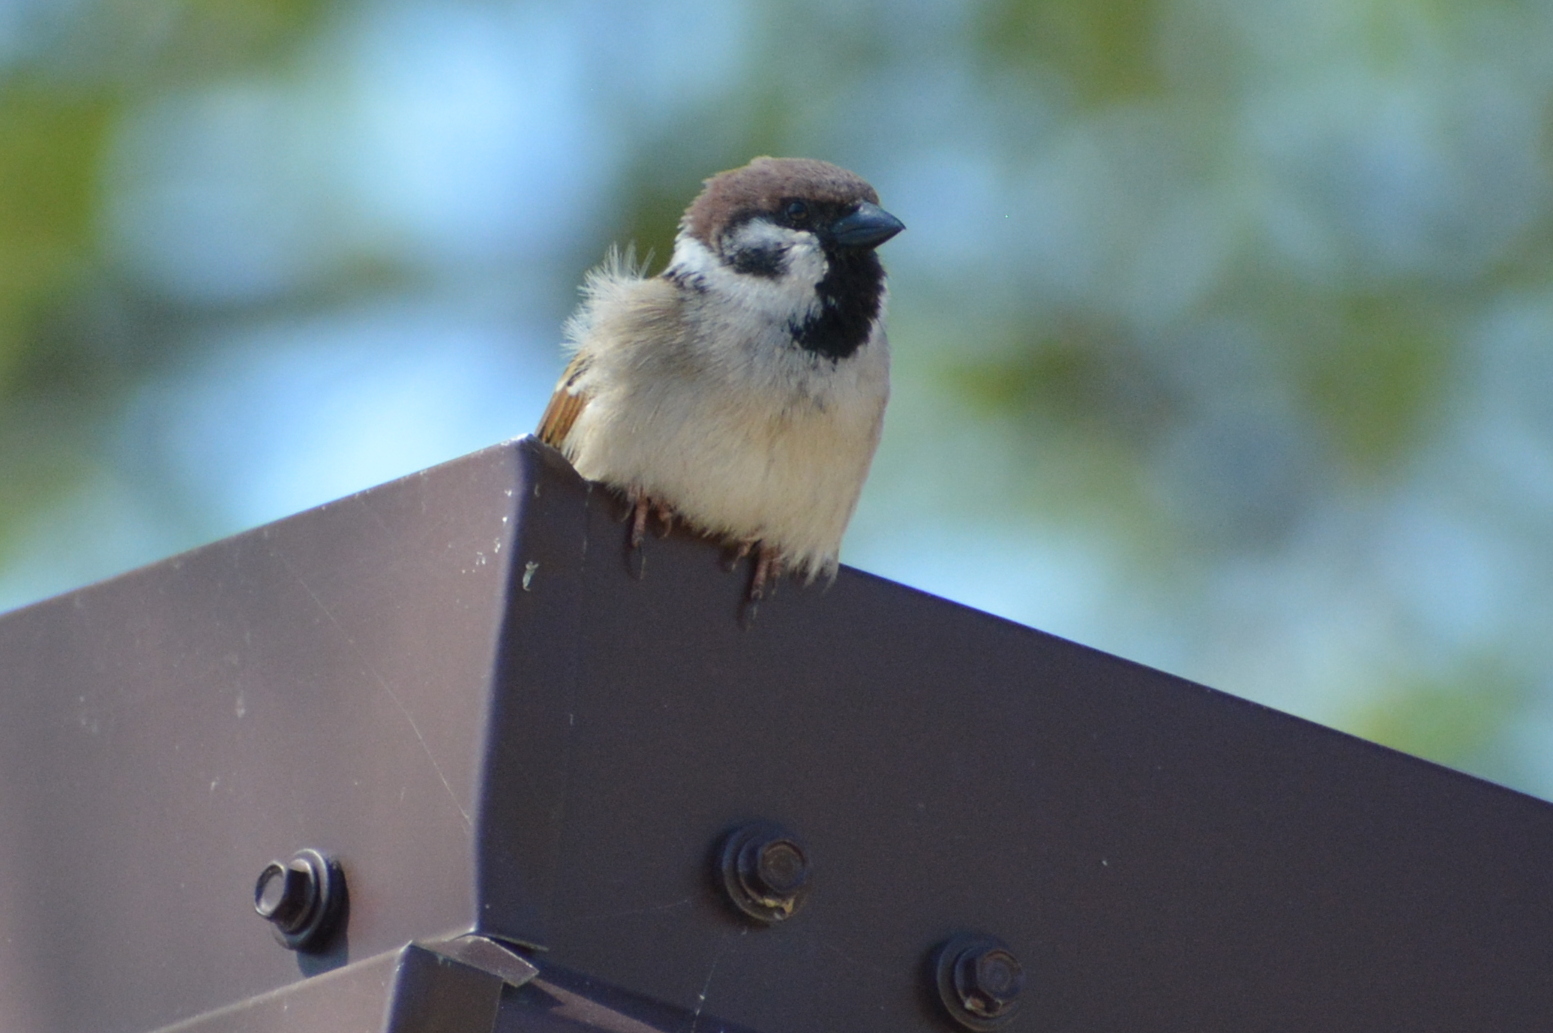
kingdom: Animalia
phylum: Chordata
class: Aves
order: Passeriformes
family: Passeridae
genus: Passer
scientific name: Passer montanus
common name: Eurasian tree sparrow
